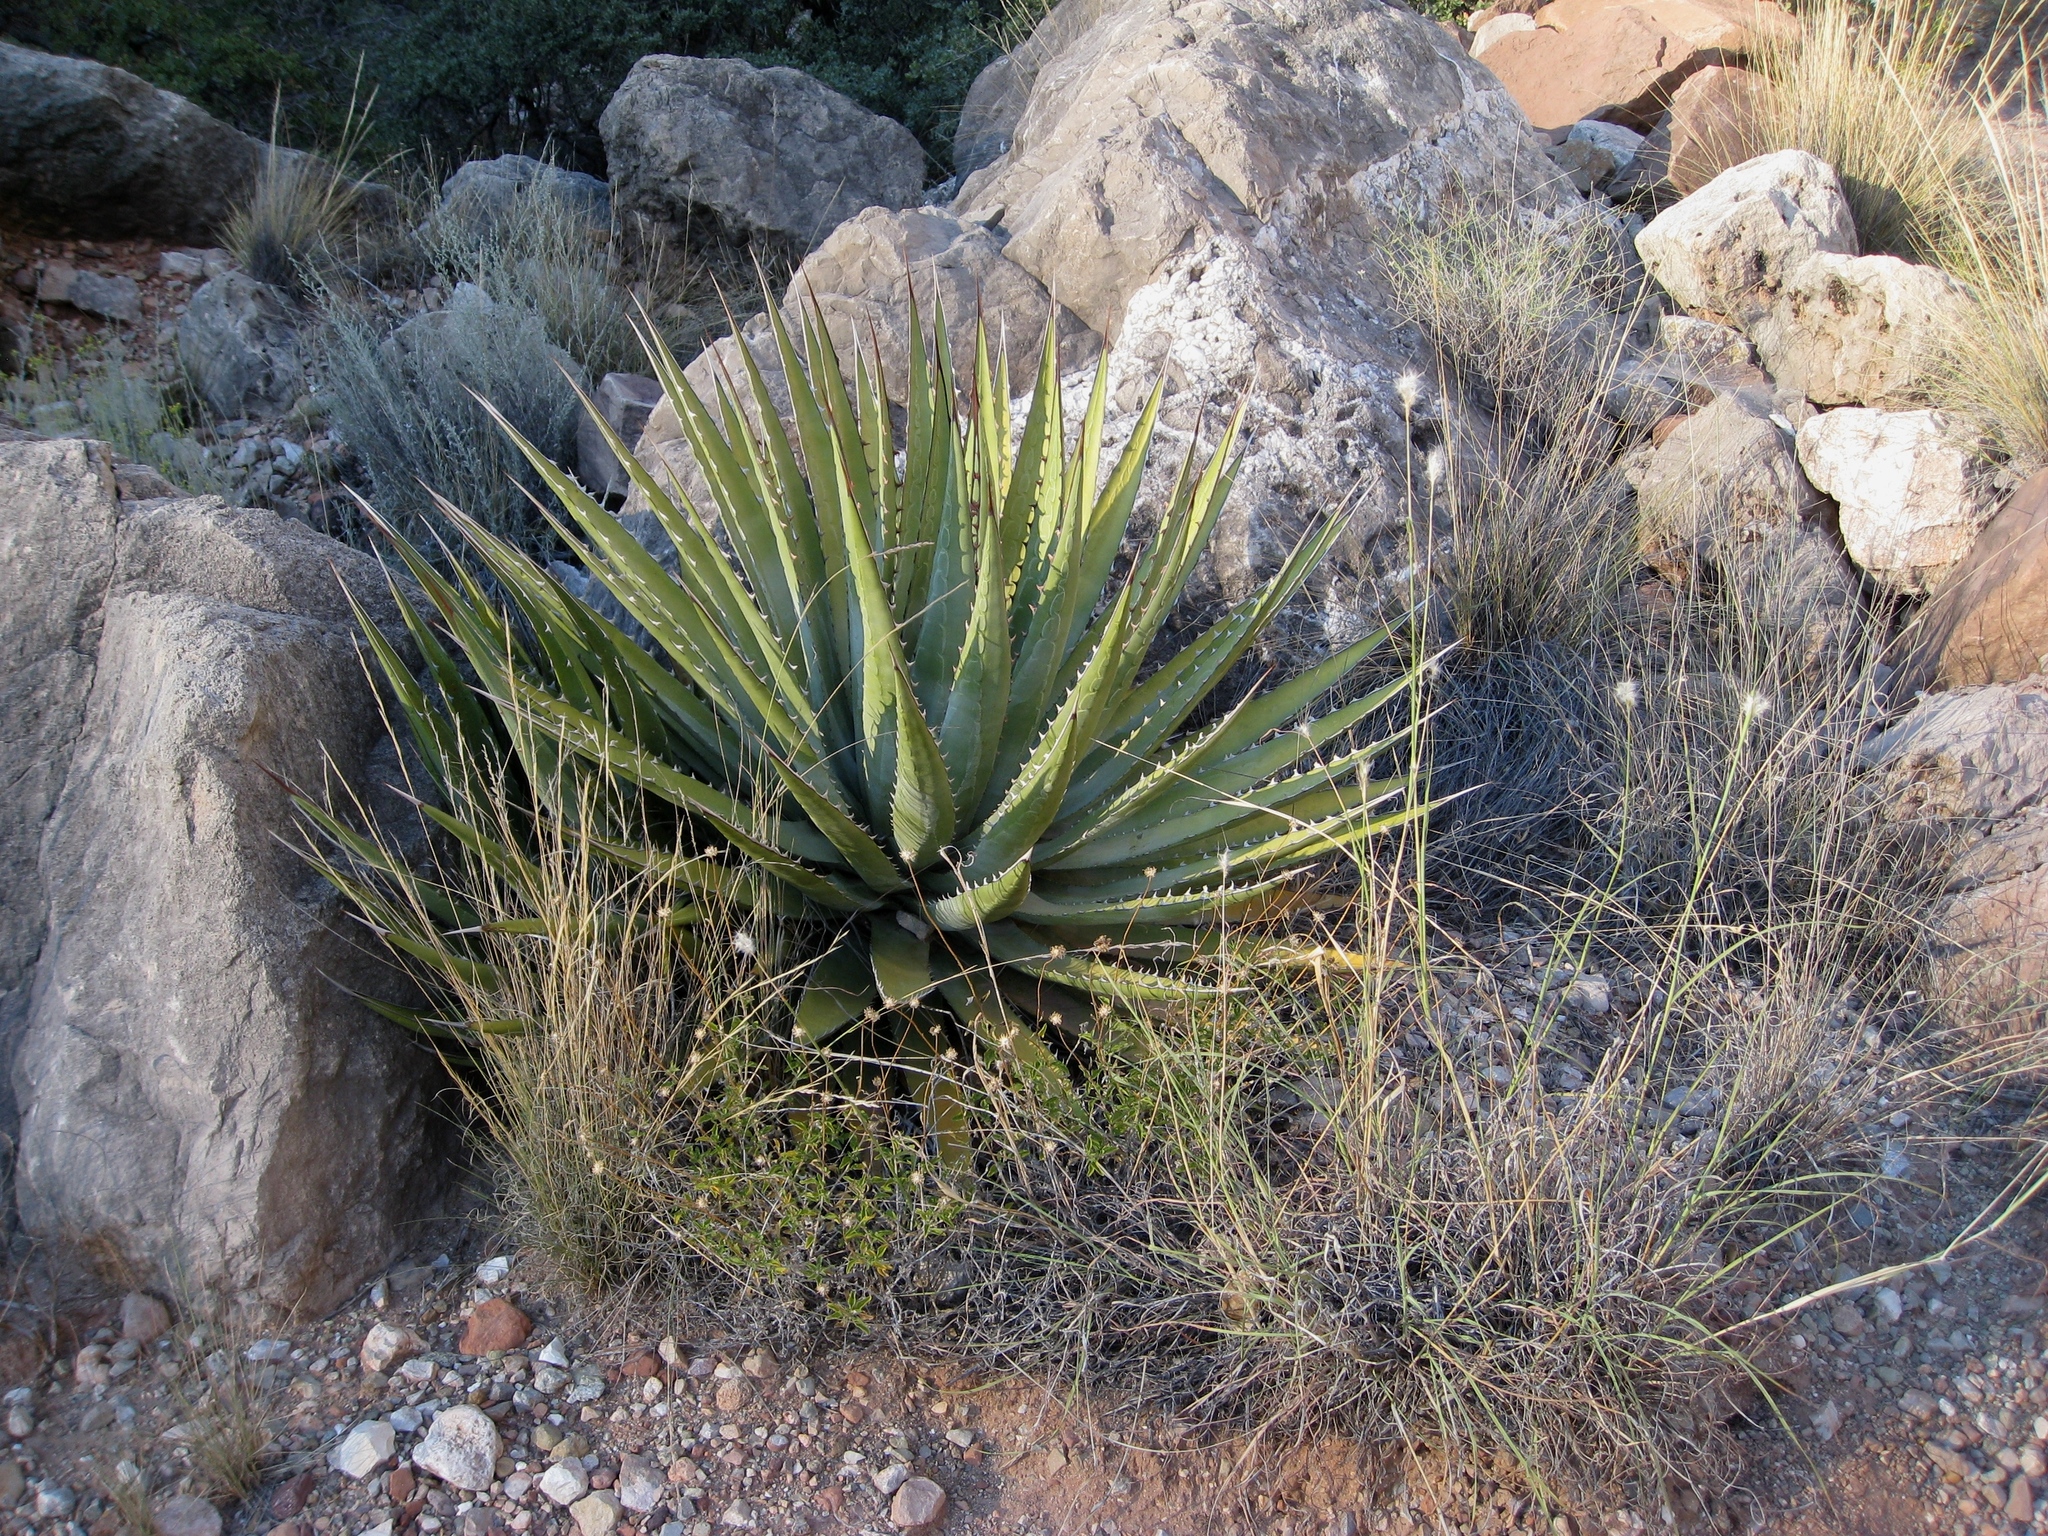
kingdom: Plantae
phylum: Tracheophyta
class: Liliopsida
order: Asparagales
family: Asparagaceae
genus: Agave
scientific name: Agave utahensis
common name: Utah agave
